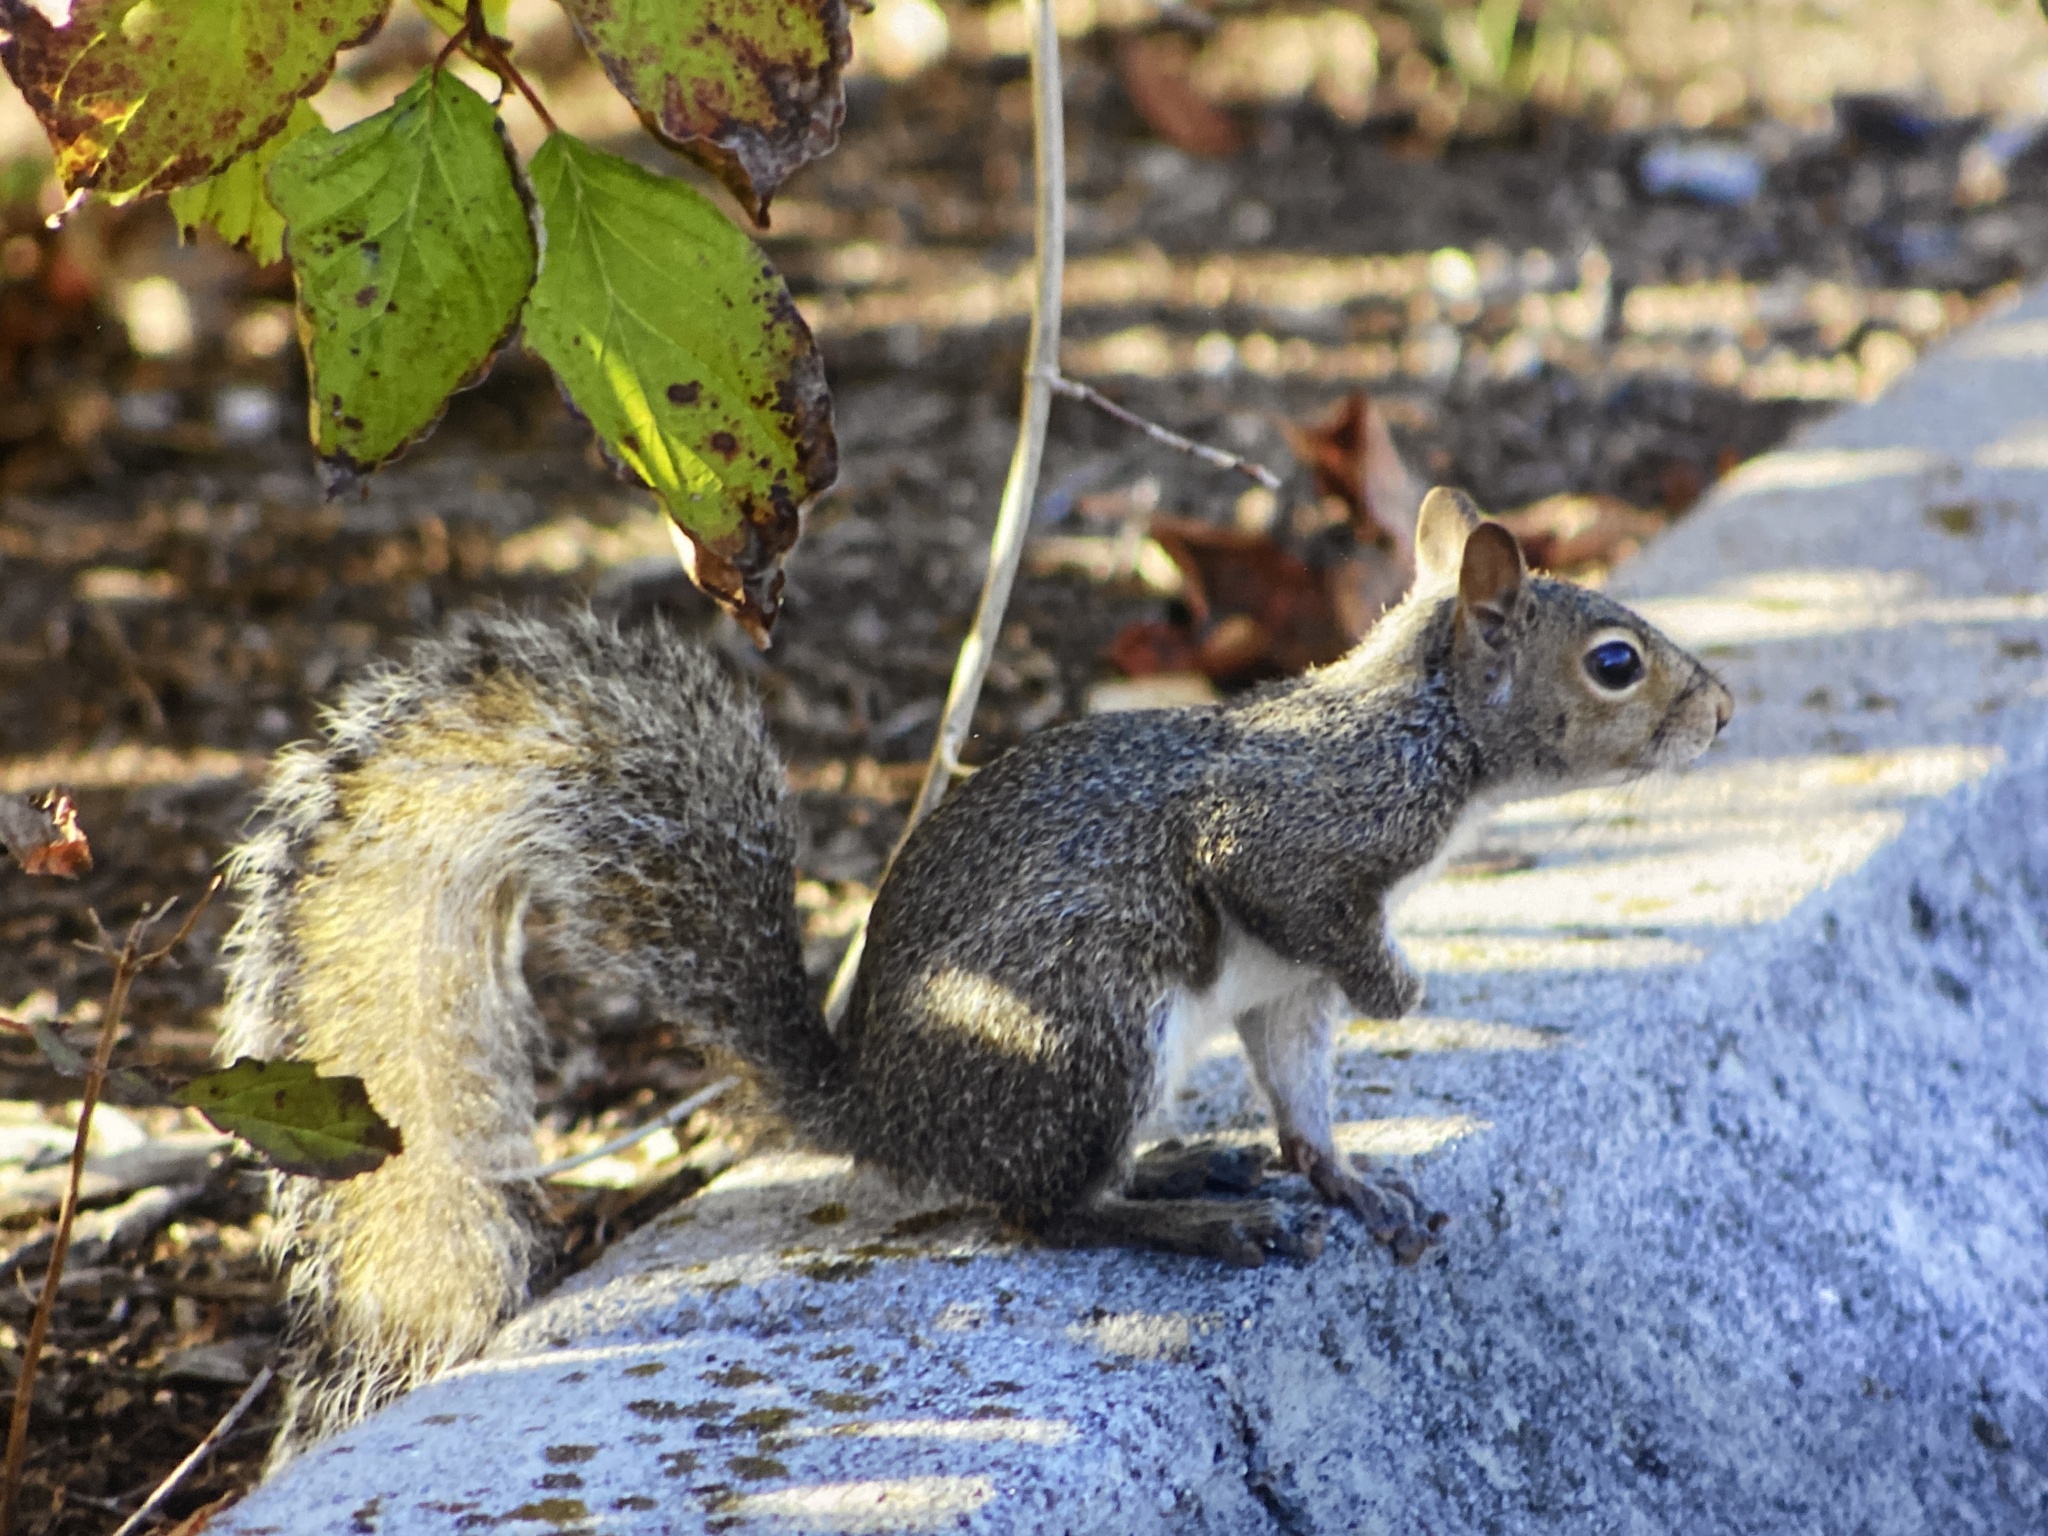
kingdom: Animalia
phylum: Chordata
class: Mammalia
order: Rodentia
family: Sciuridae
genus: Sciurus
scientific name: Sciurus carolinensis
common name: Eastern gray squirrel
